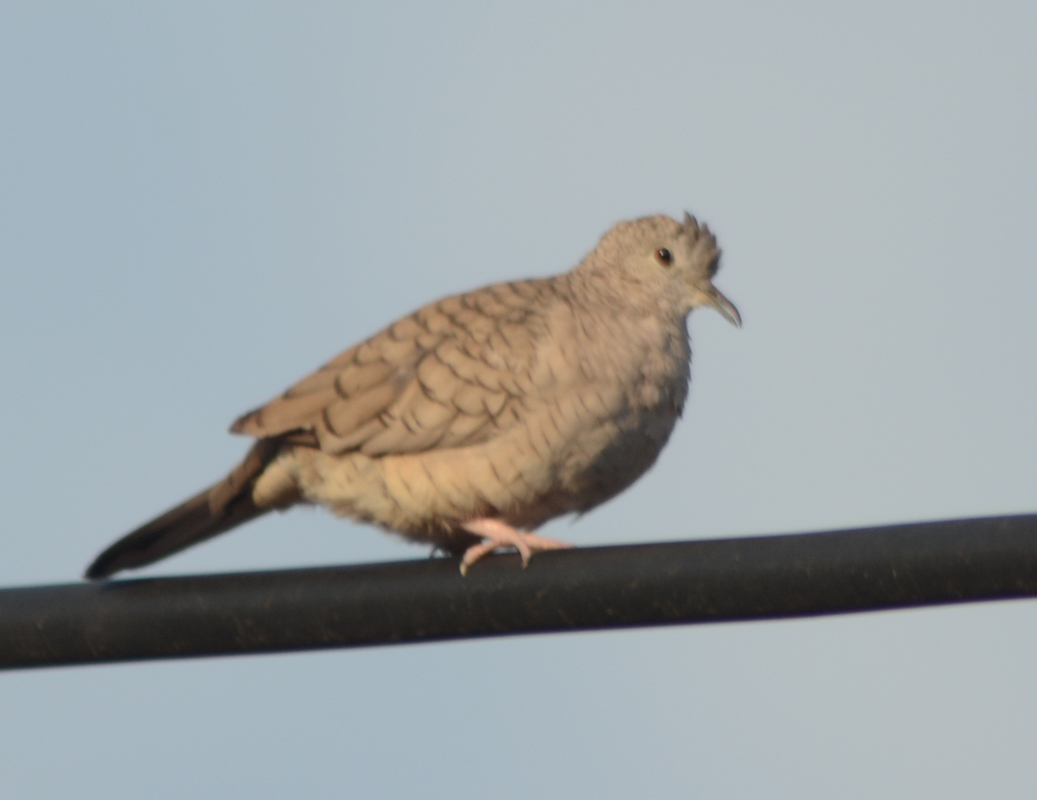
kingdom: Animalia
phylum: Chordata
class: Aves
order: Columbiformes
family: Columbidae
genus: Columbina
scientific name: Columbina inca
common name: Inca dove
